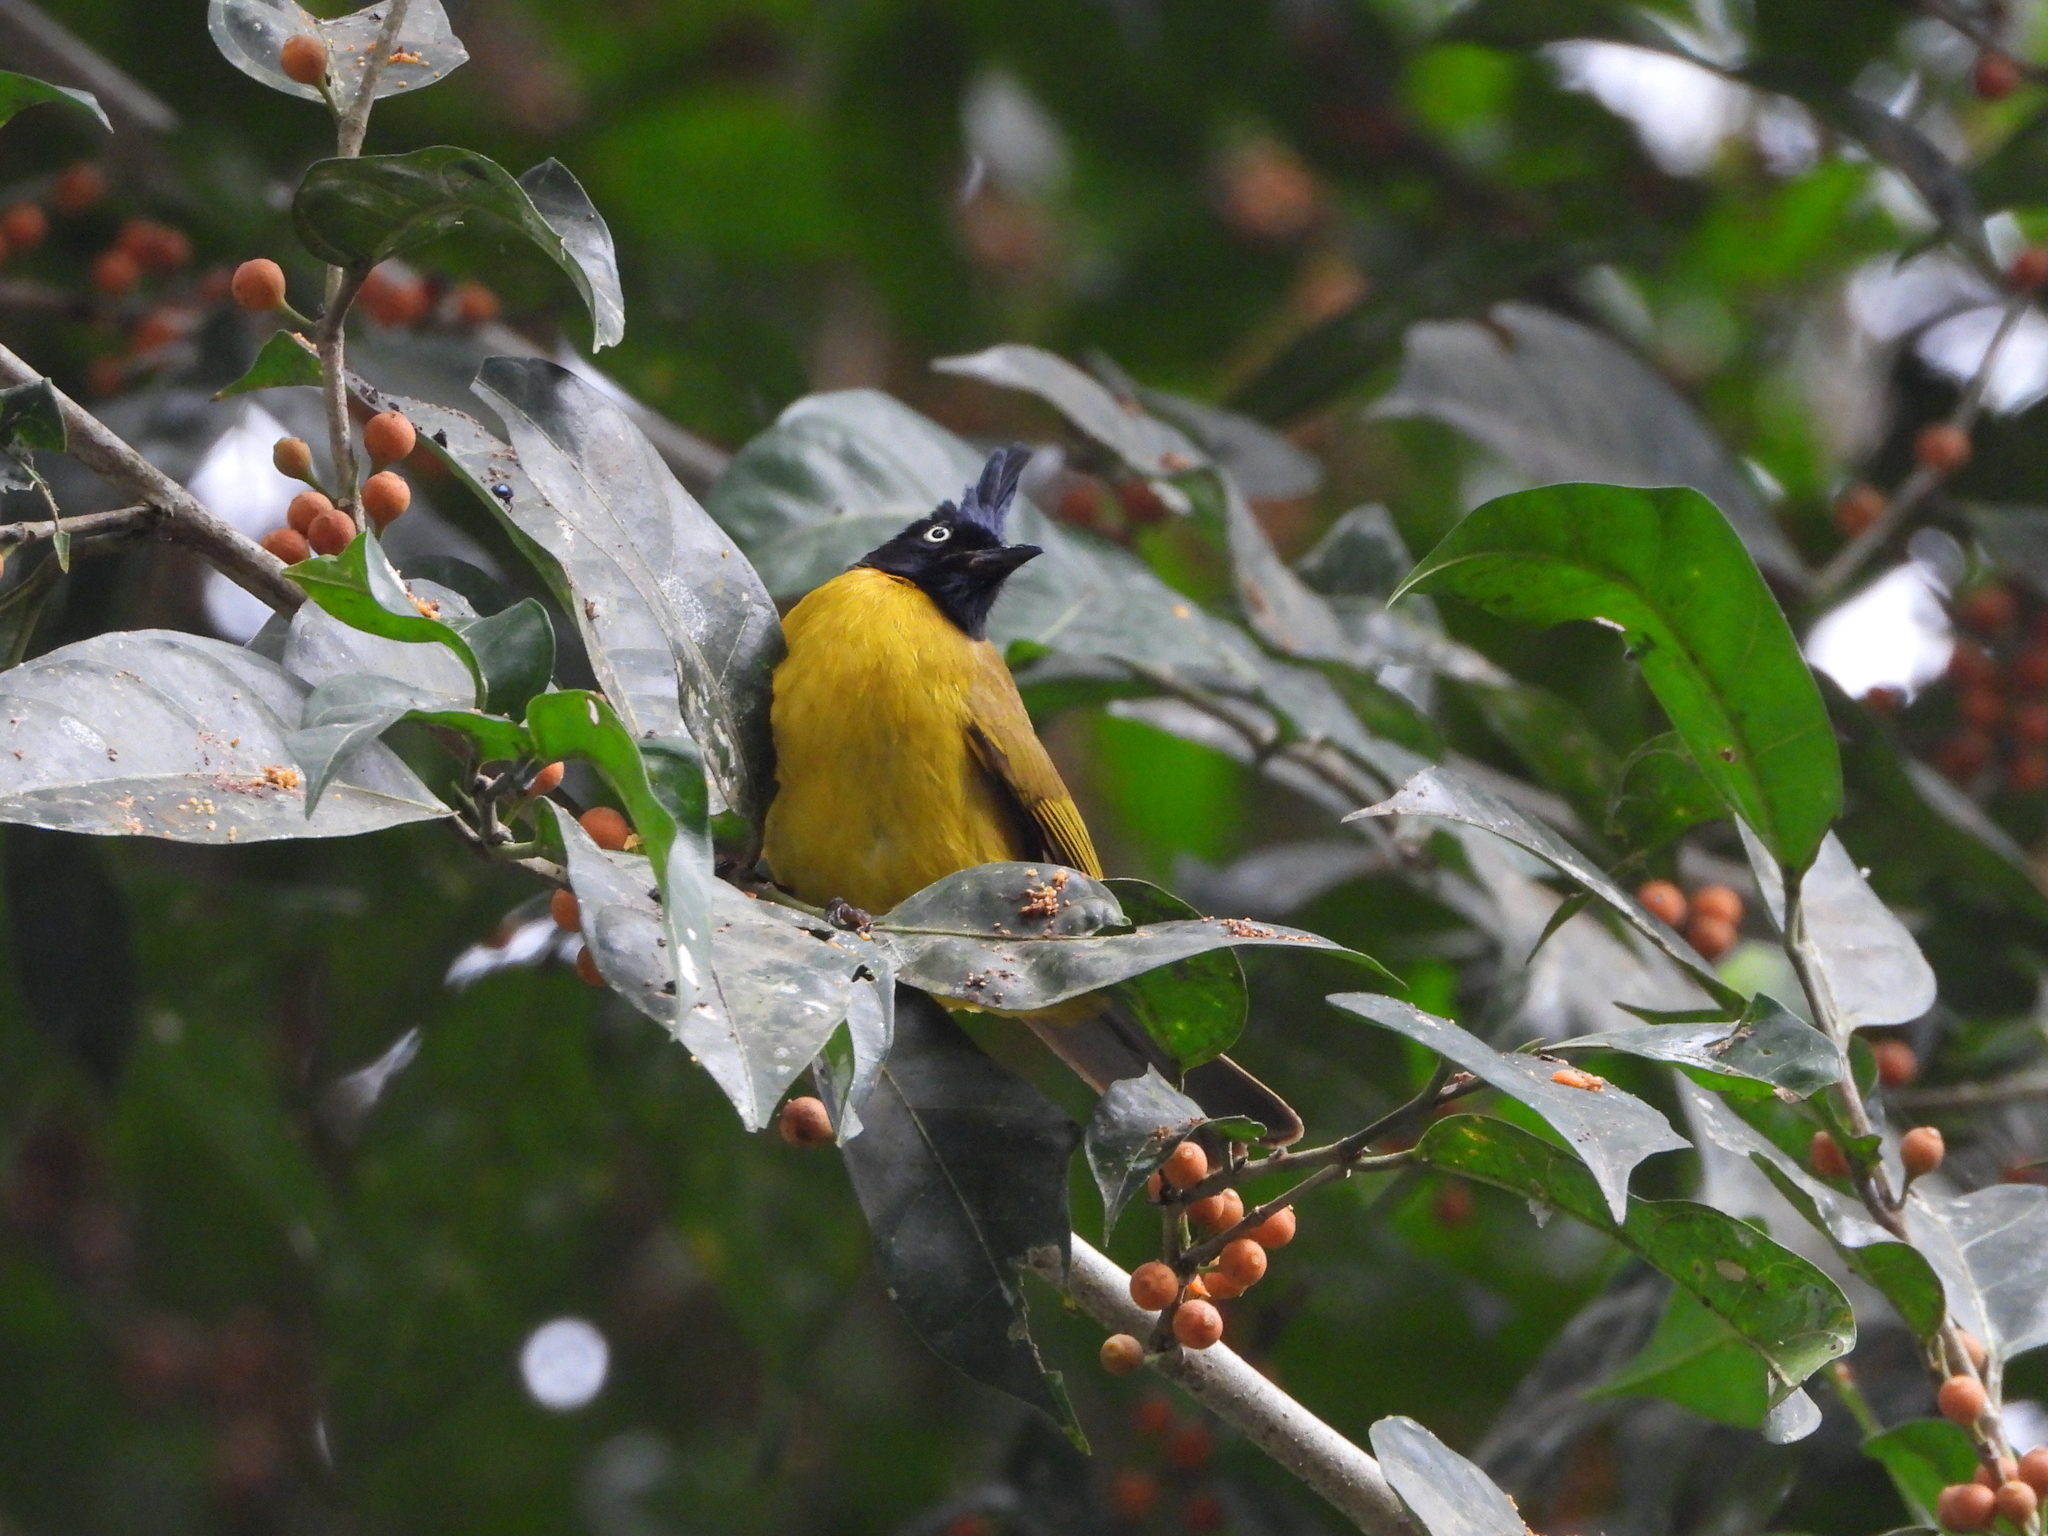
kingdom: Animalia
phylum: Chordata
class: Aves
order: Passeriformes
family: Pycnonotidae
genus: Pycnonotus
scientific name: Pycnonotus flaviventris
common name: Black-crested bulbul
